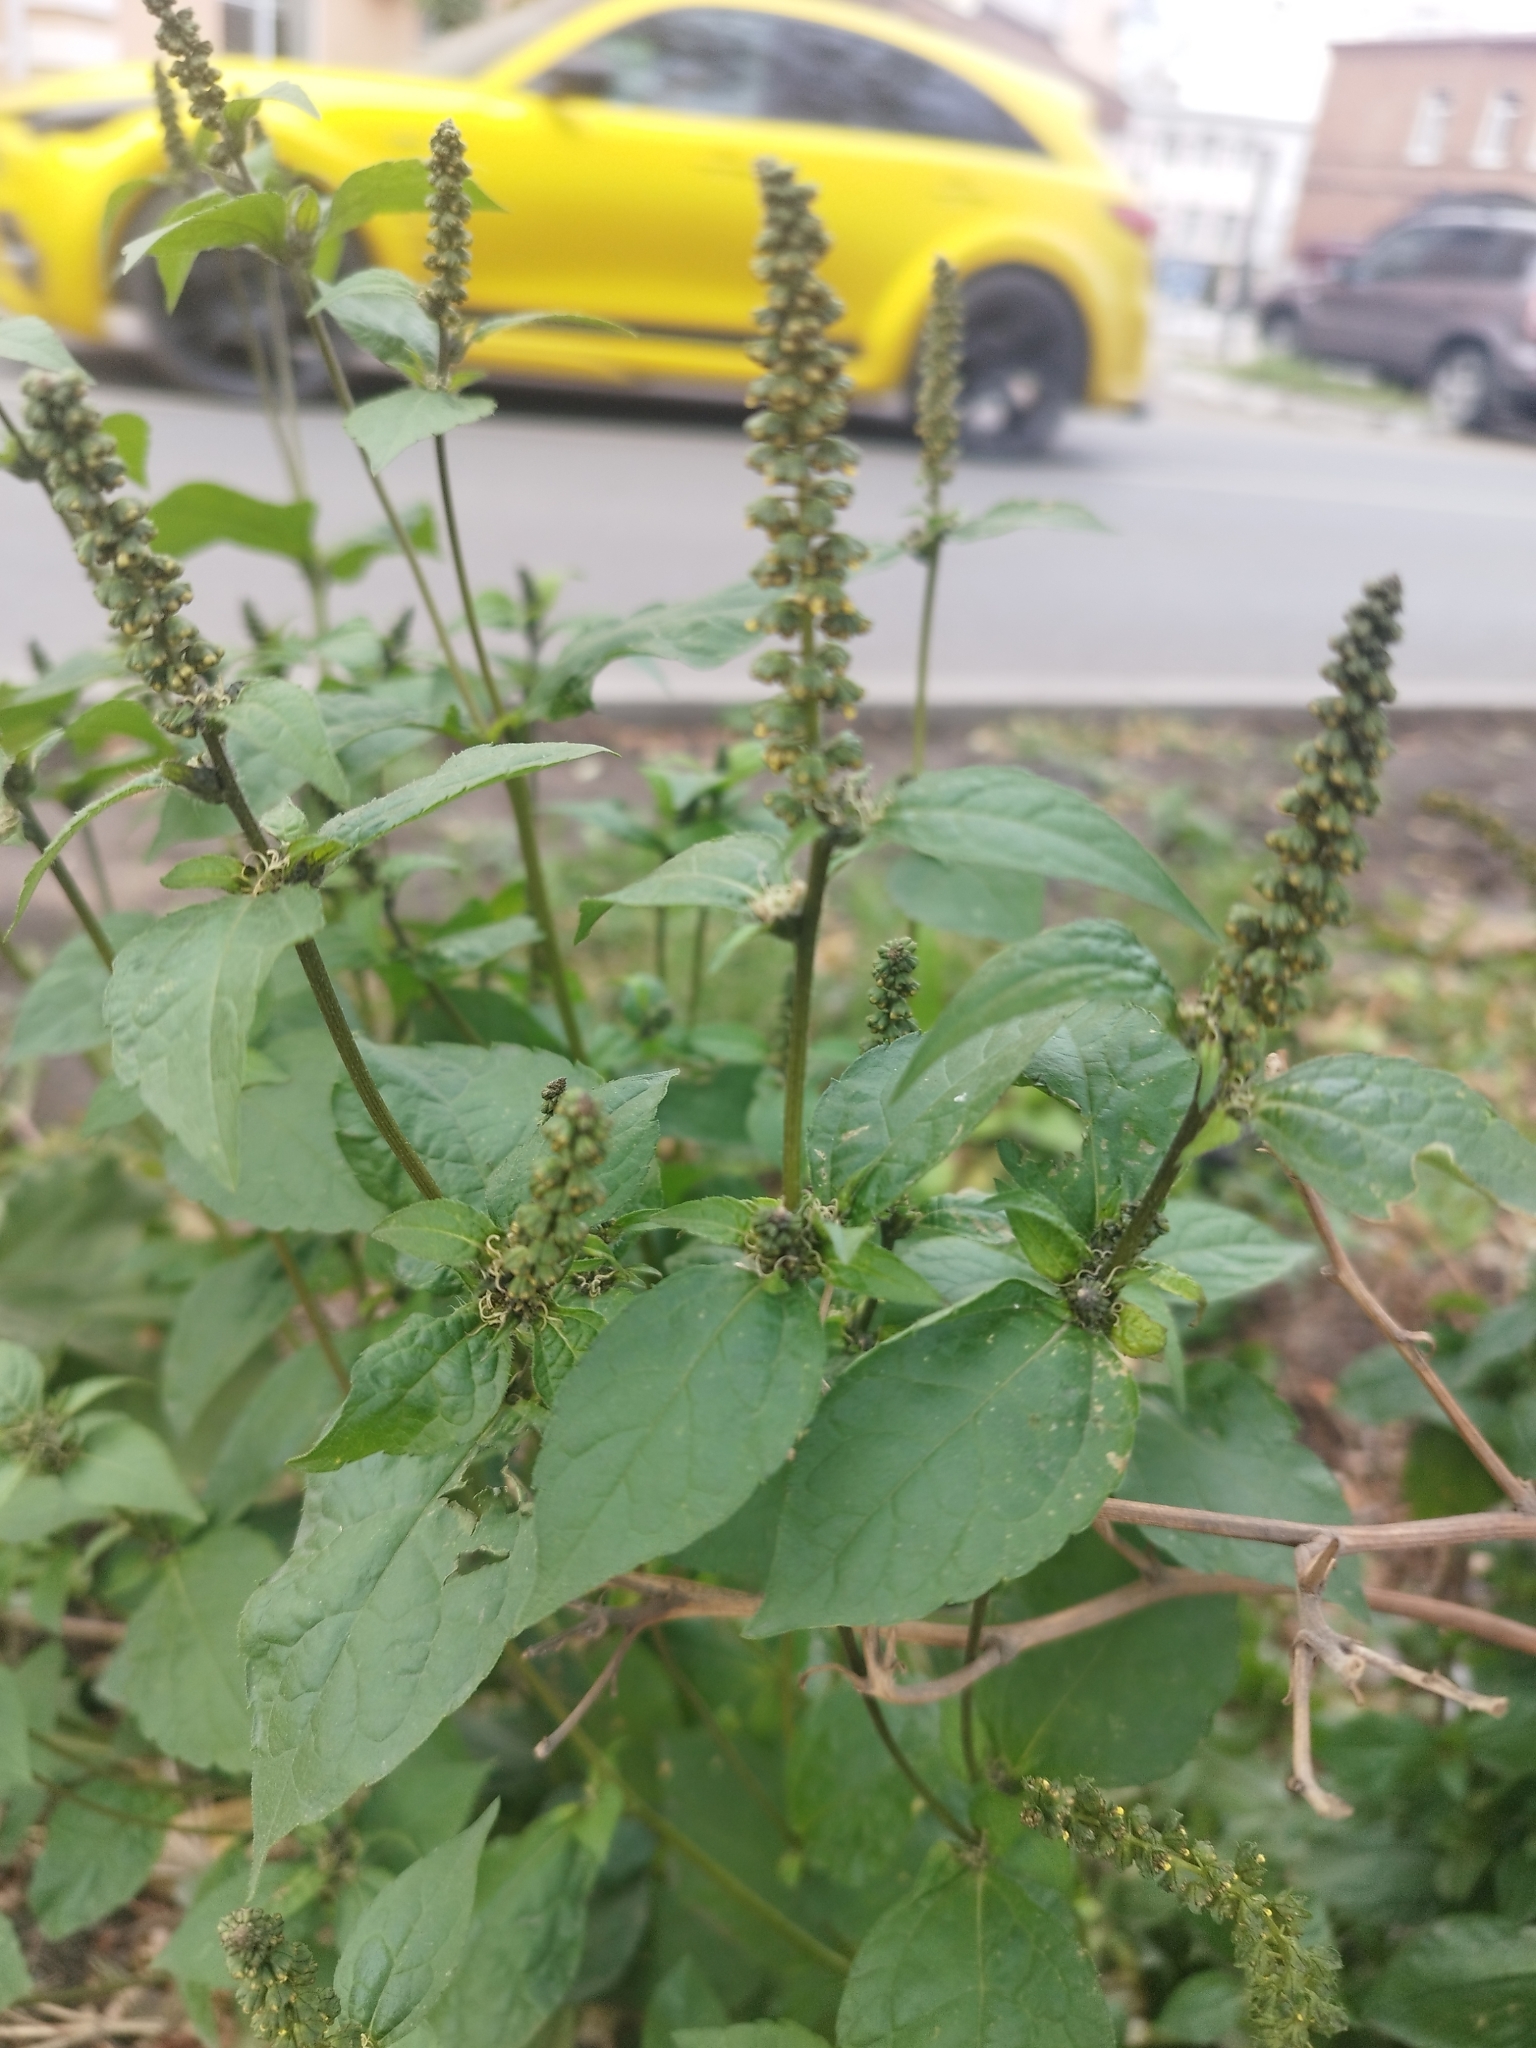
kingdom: Plantae
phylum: Tracheophyta
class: Magnoliopsida
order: Asterales
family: Asteraceae
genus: Ambrosia
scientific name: Ambrosia trifida
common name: Giant ragweed
